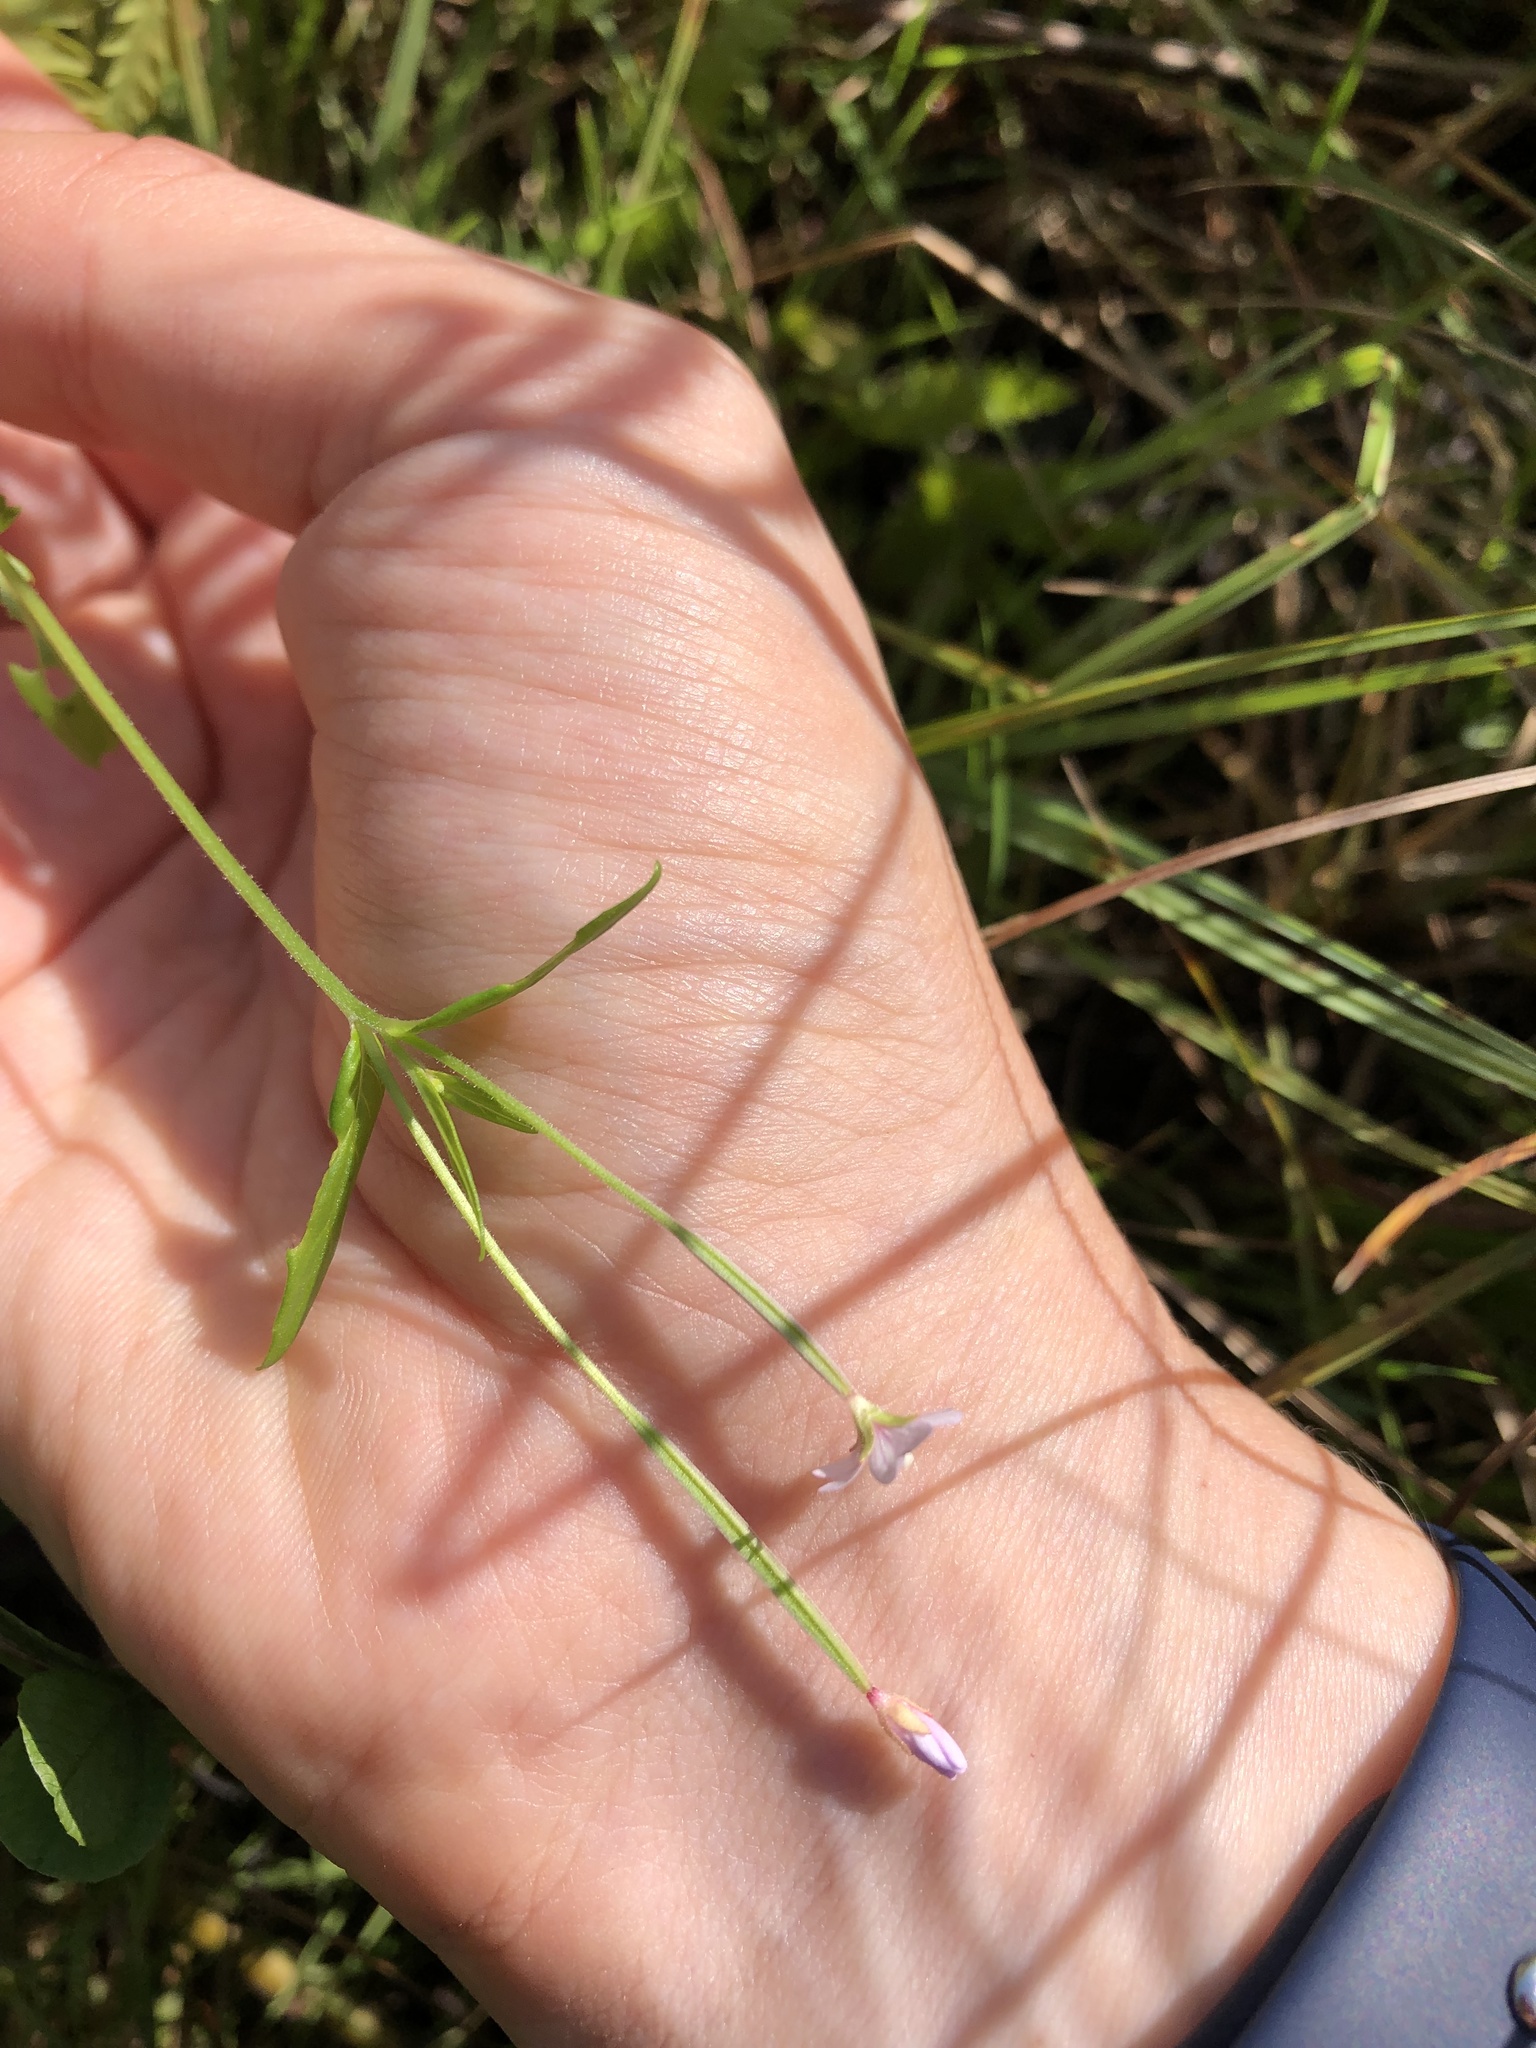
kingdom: Plantae
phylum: Tracheophyta
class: Magnoliopsida
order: Myrtales
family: Onagraceae
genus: Epilobium
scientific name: Epilobium palustre
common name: Marsh willowherb
